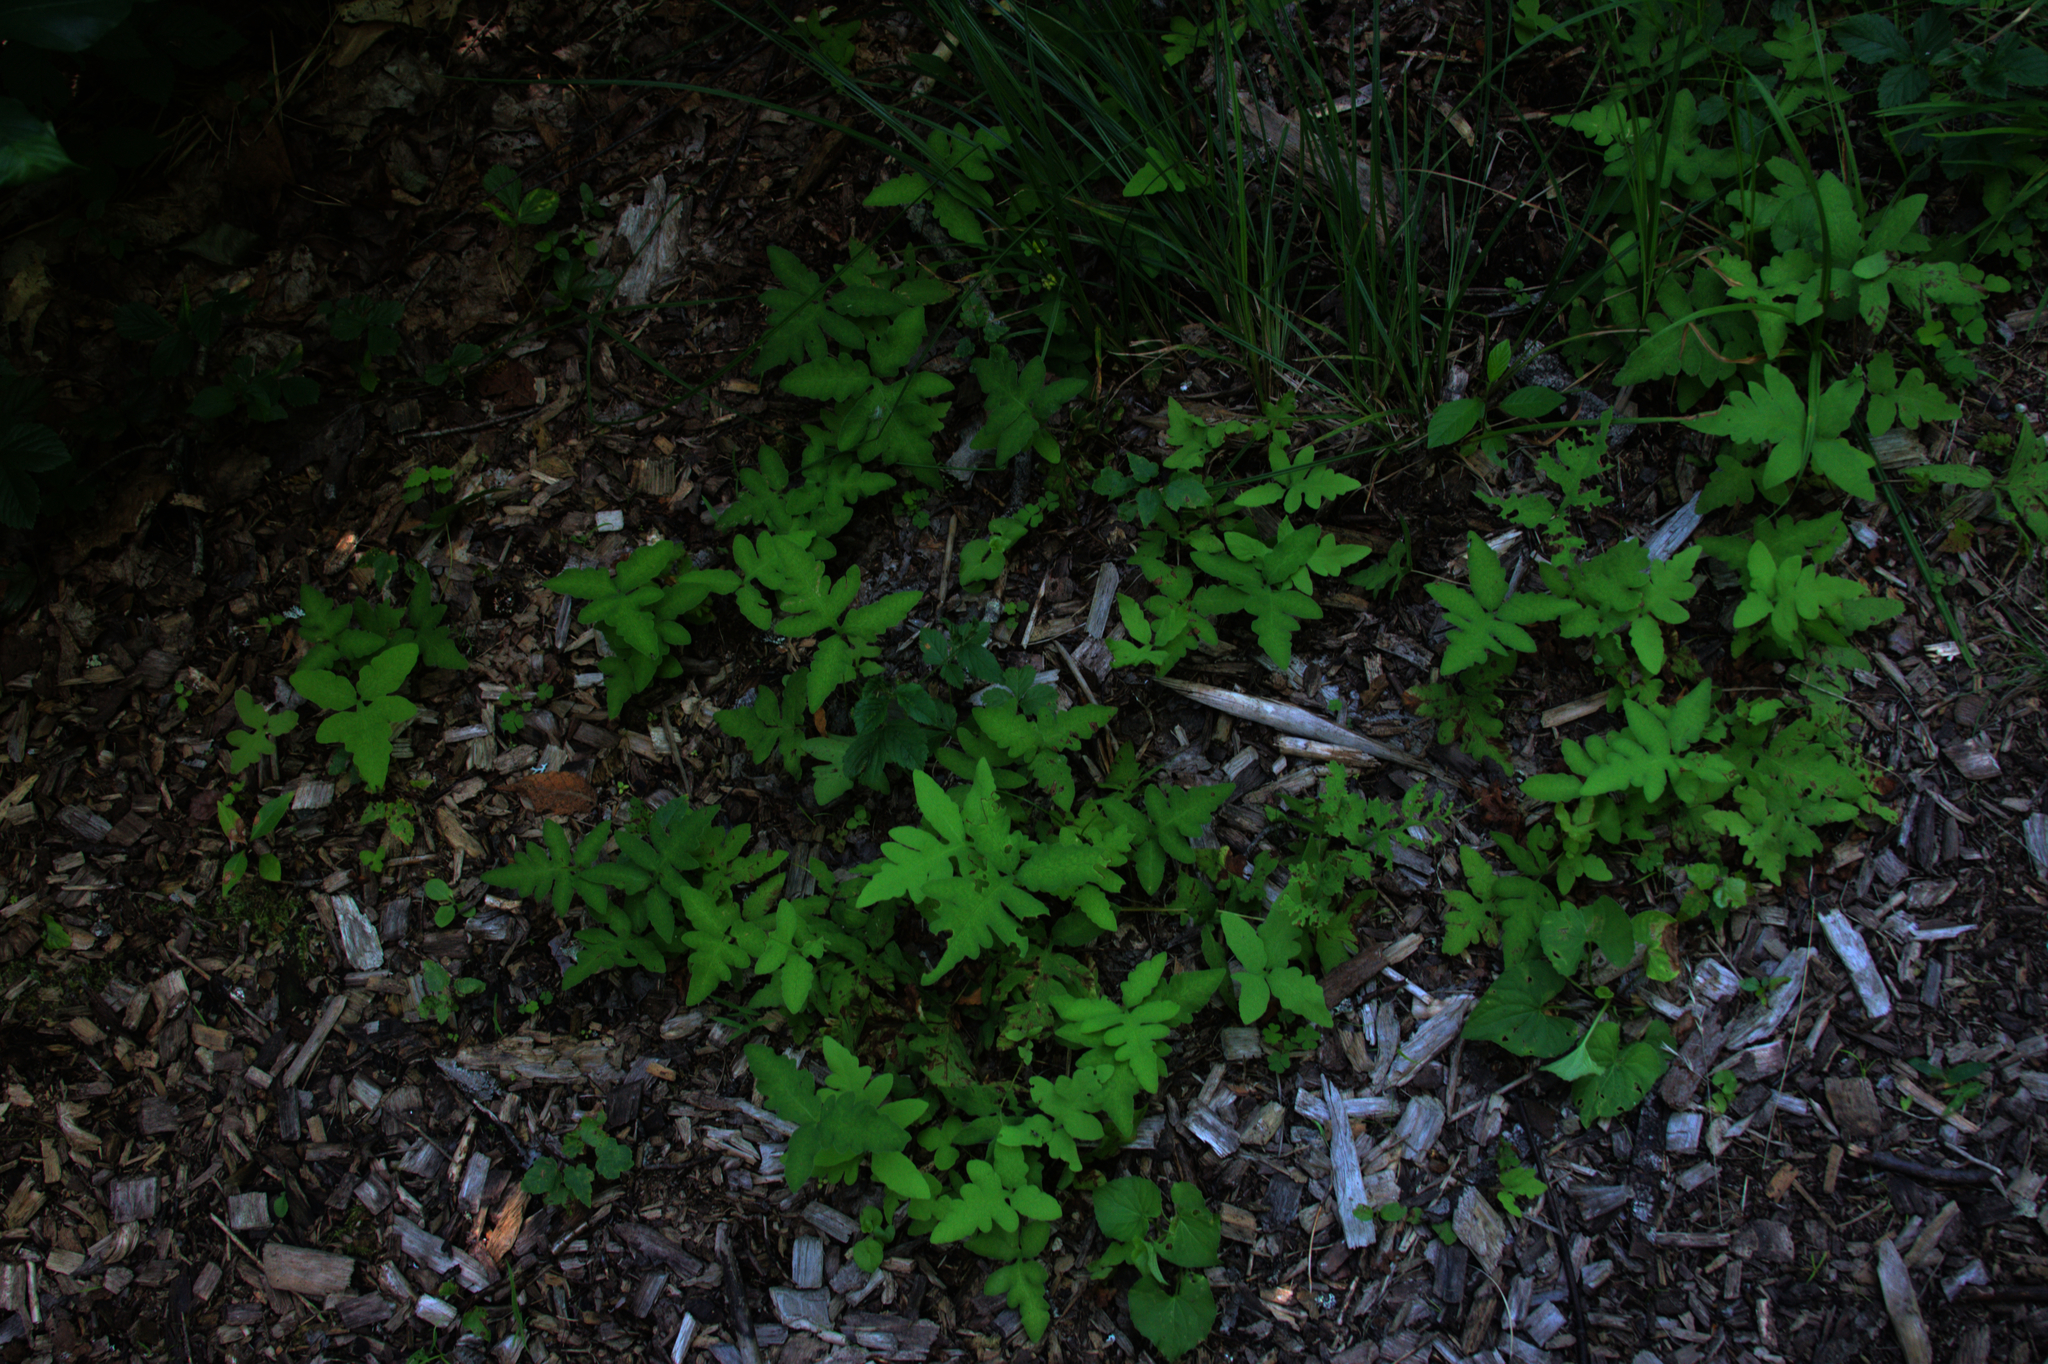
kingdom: Plantae
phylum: Tracheophyta
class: Polypodiopsida
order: Polypodiales
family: Onocleaceae
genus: Onoclea
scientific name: Onoclea sensibilis
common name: Sensitive fern
